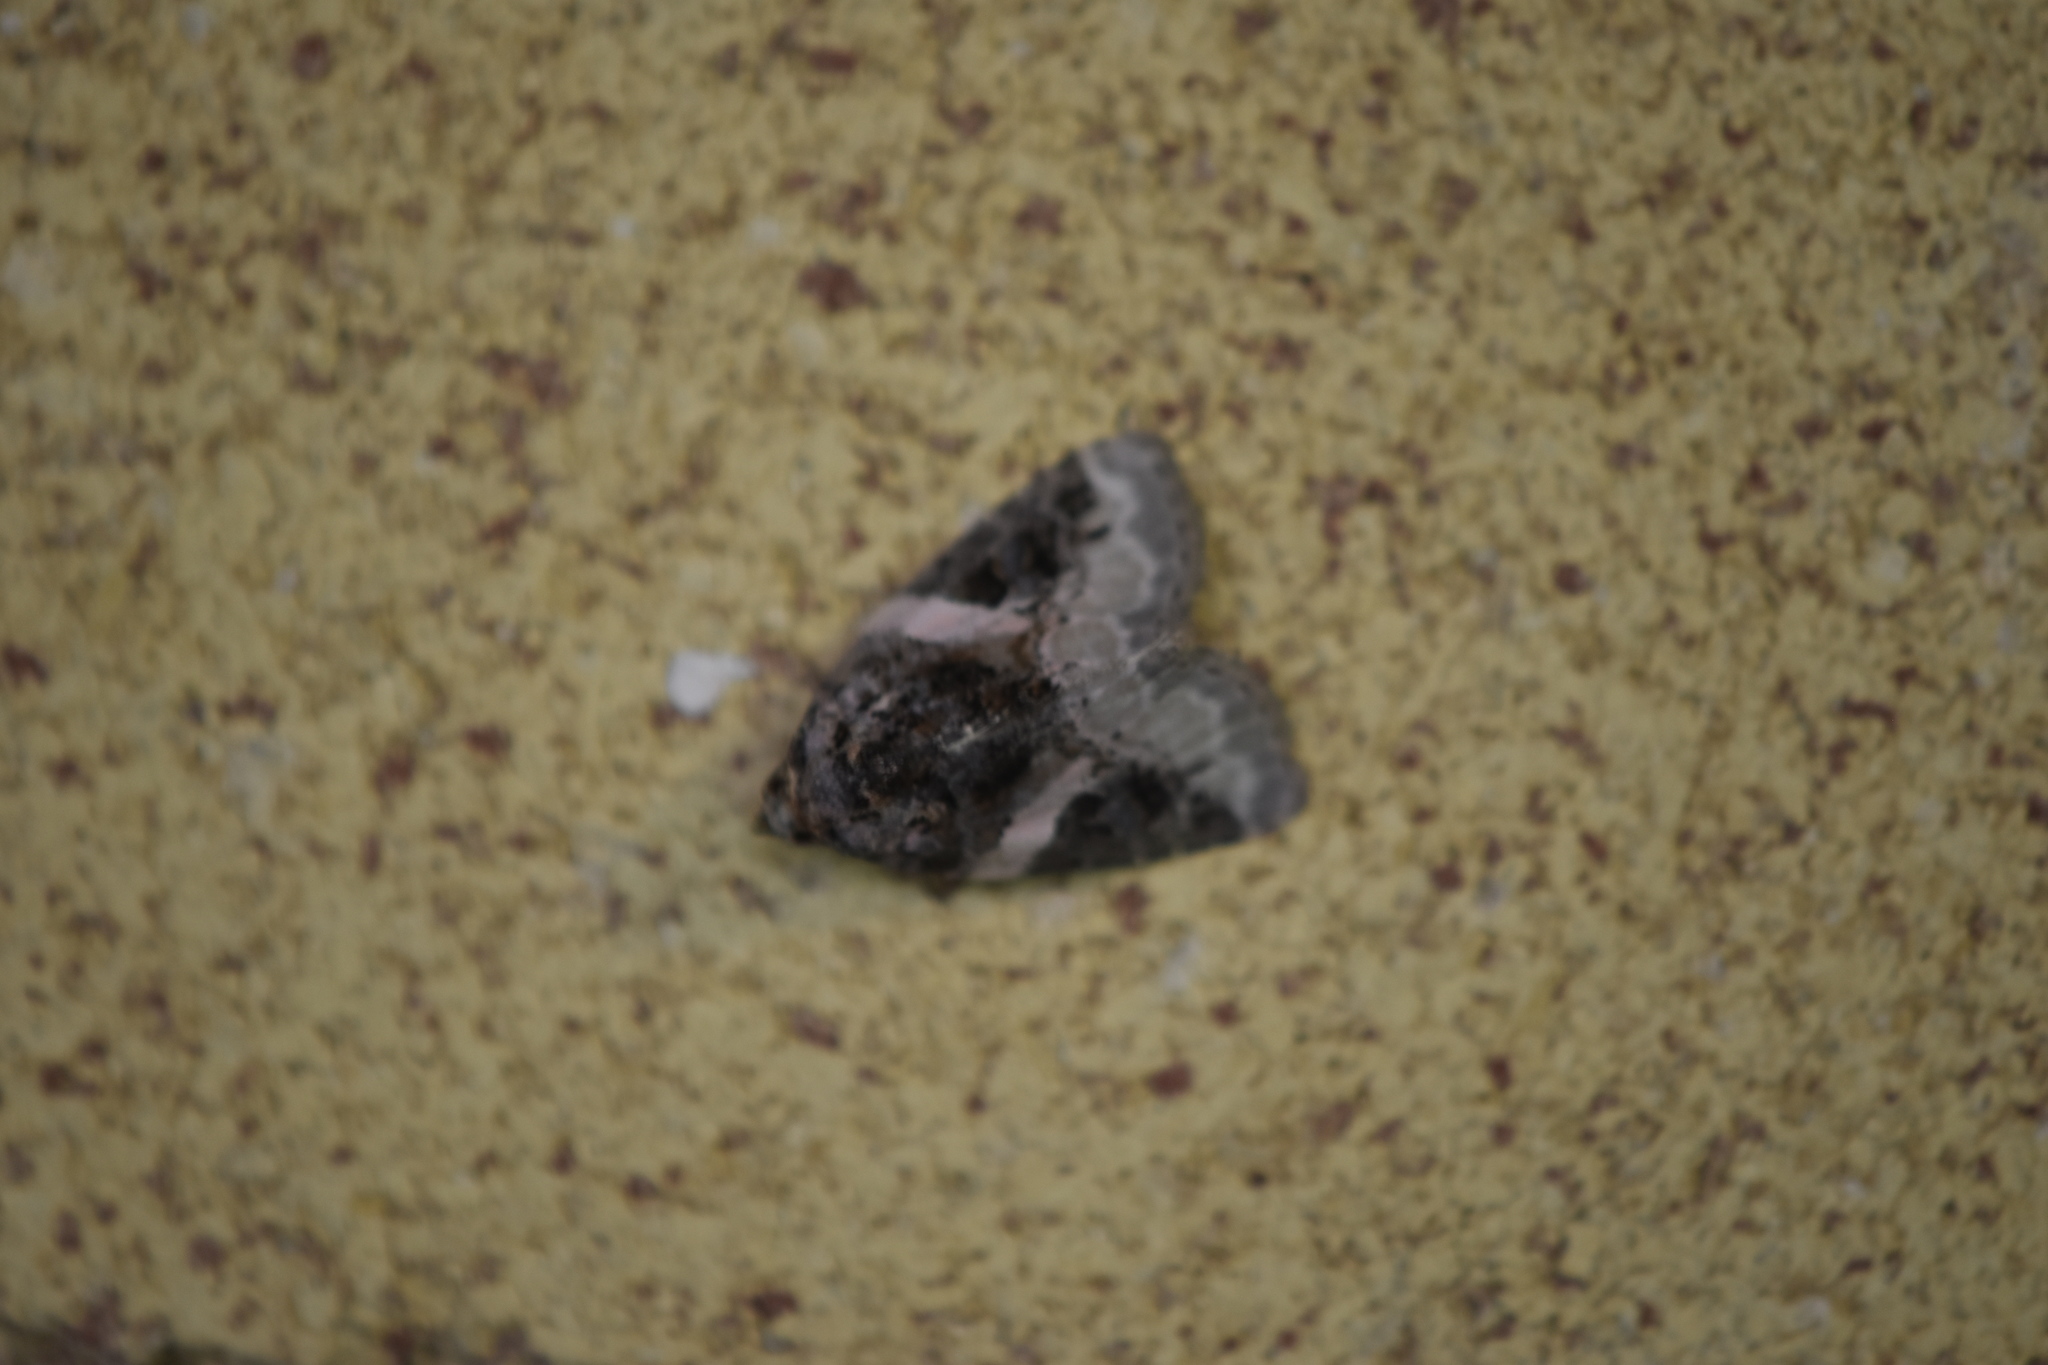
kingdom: Animalia
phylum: Arthropoda
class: Insecta
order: Lepidoptera
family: Noctuidae
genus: Pseudeustrotia
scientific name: Pseudeustrotia carneola
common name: Pink-barred lithacodia moth
